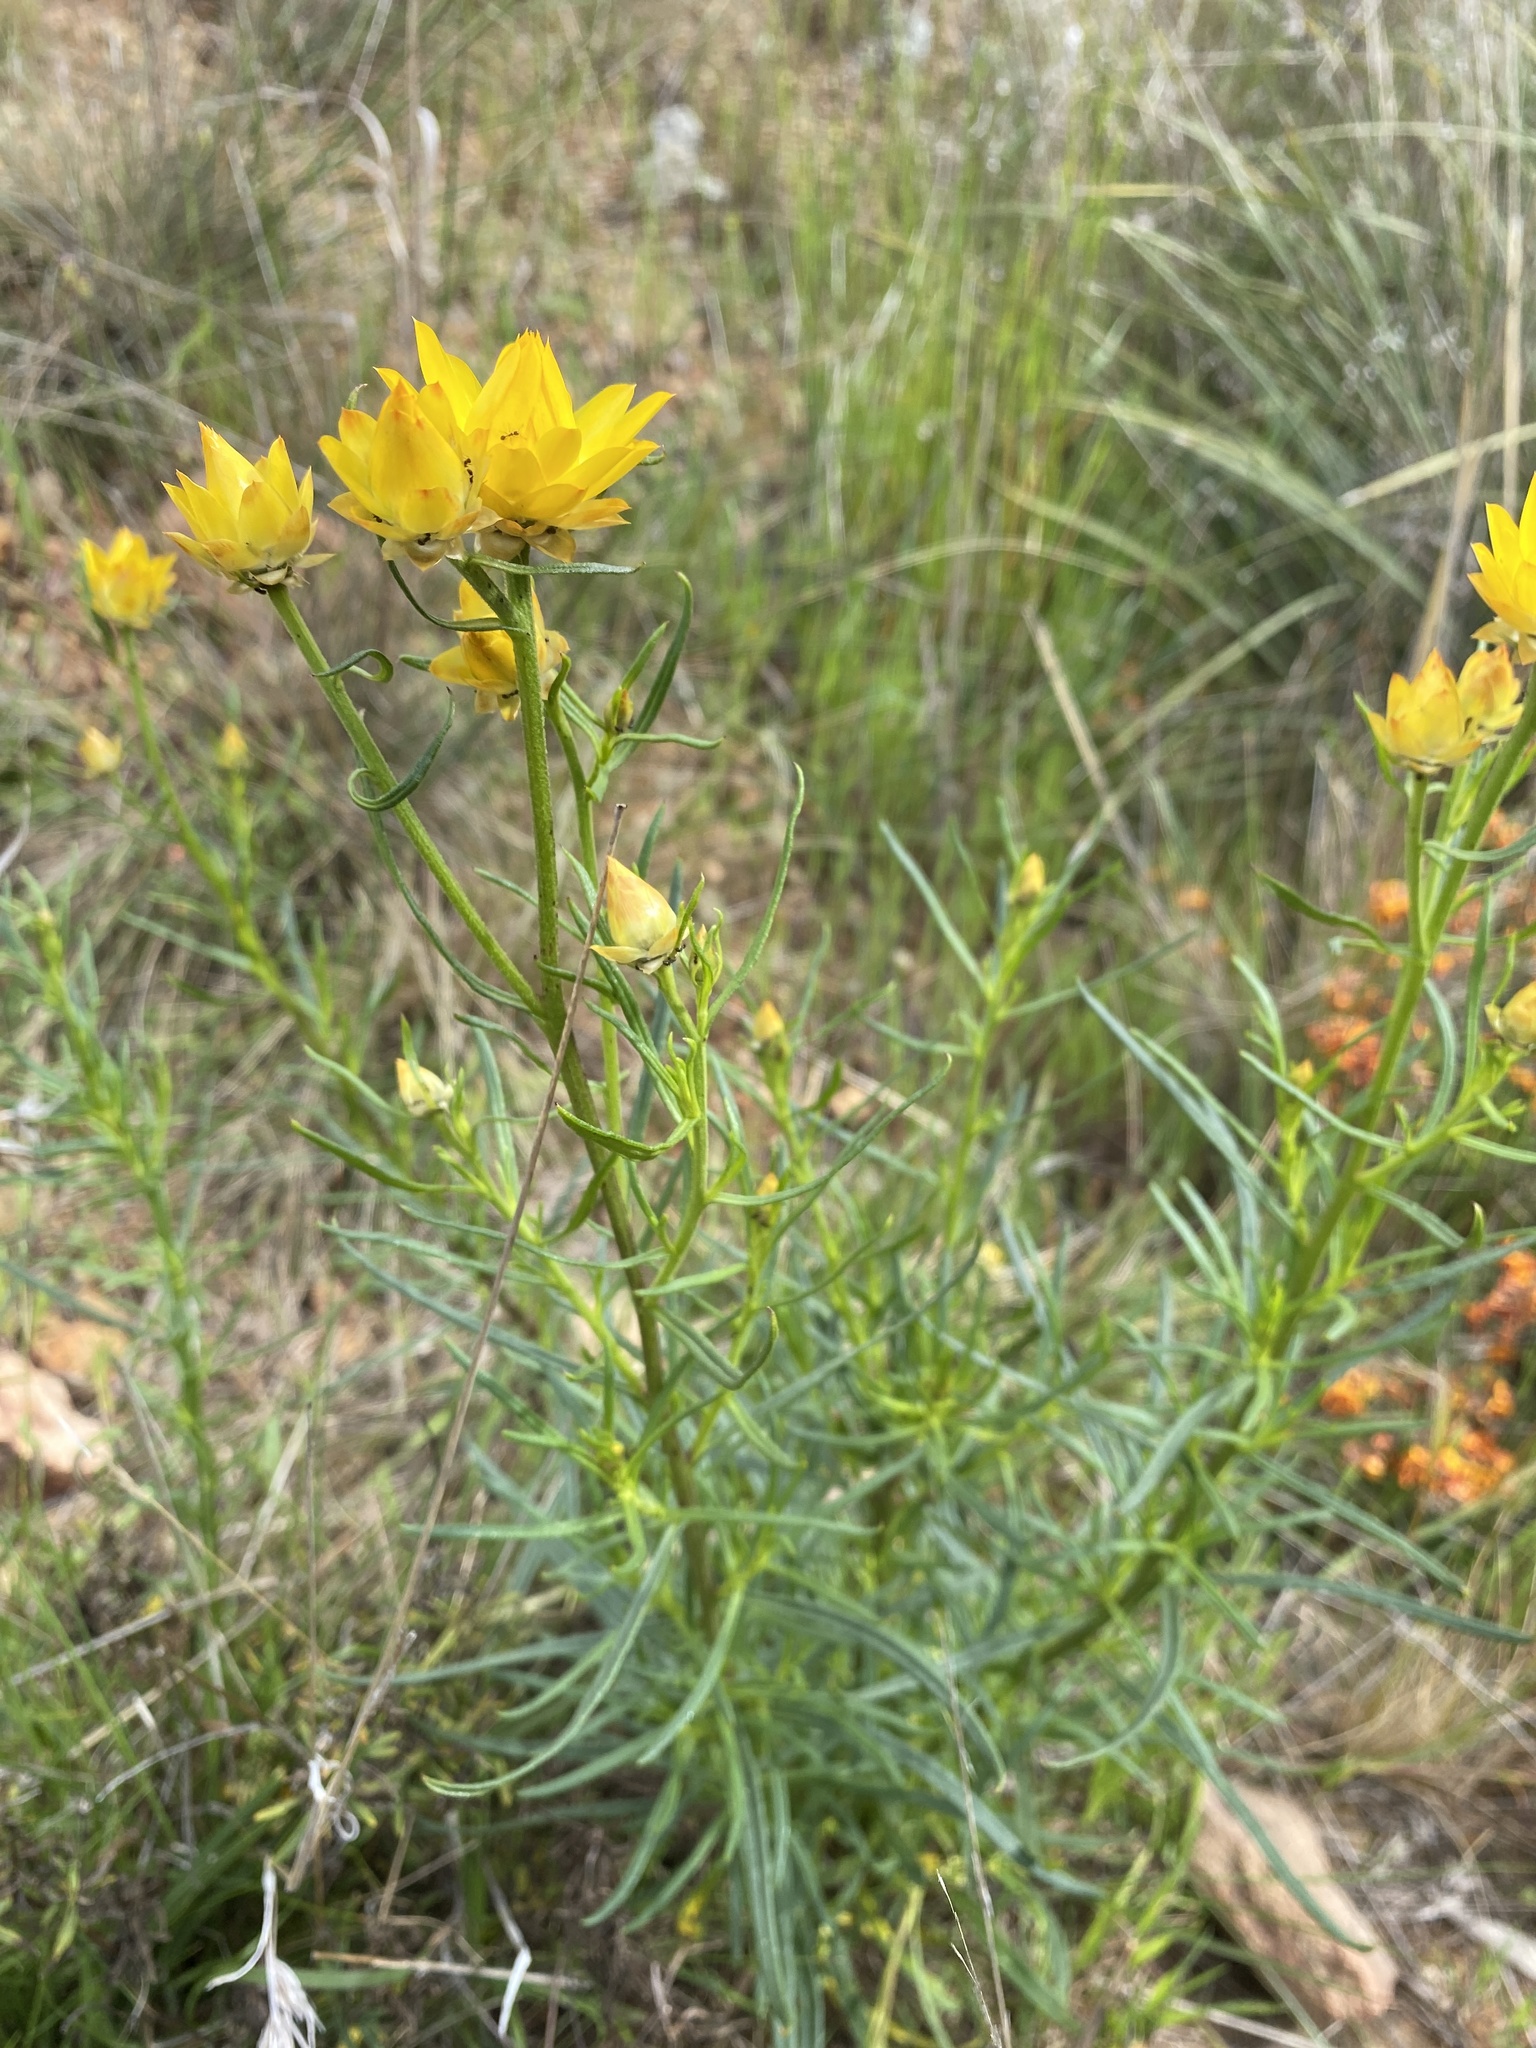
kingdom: Plantae
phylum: Tracheophyta
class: Magnoliopsida
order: Asterales
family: Asteraceae
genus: Xerochrysum
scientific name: Xerochrysum viscosum
